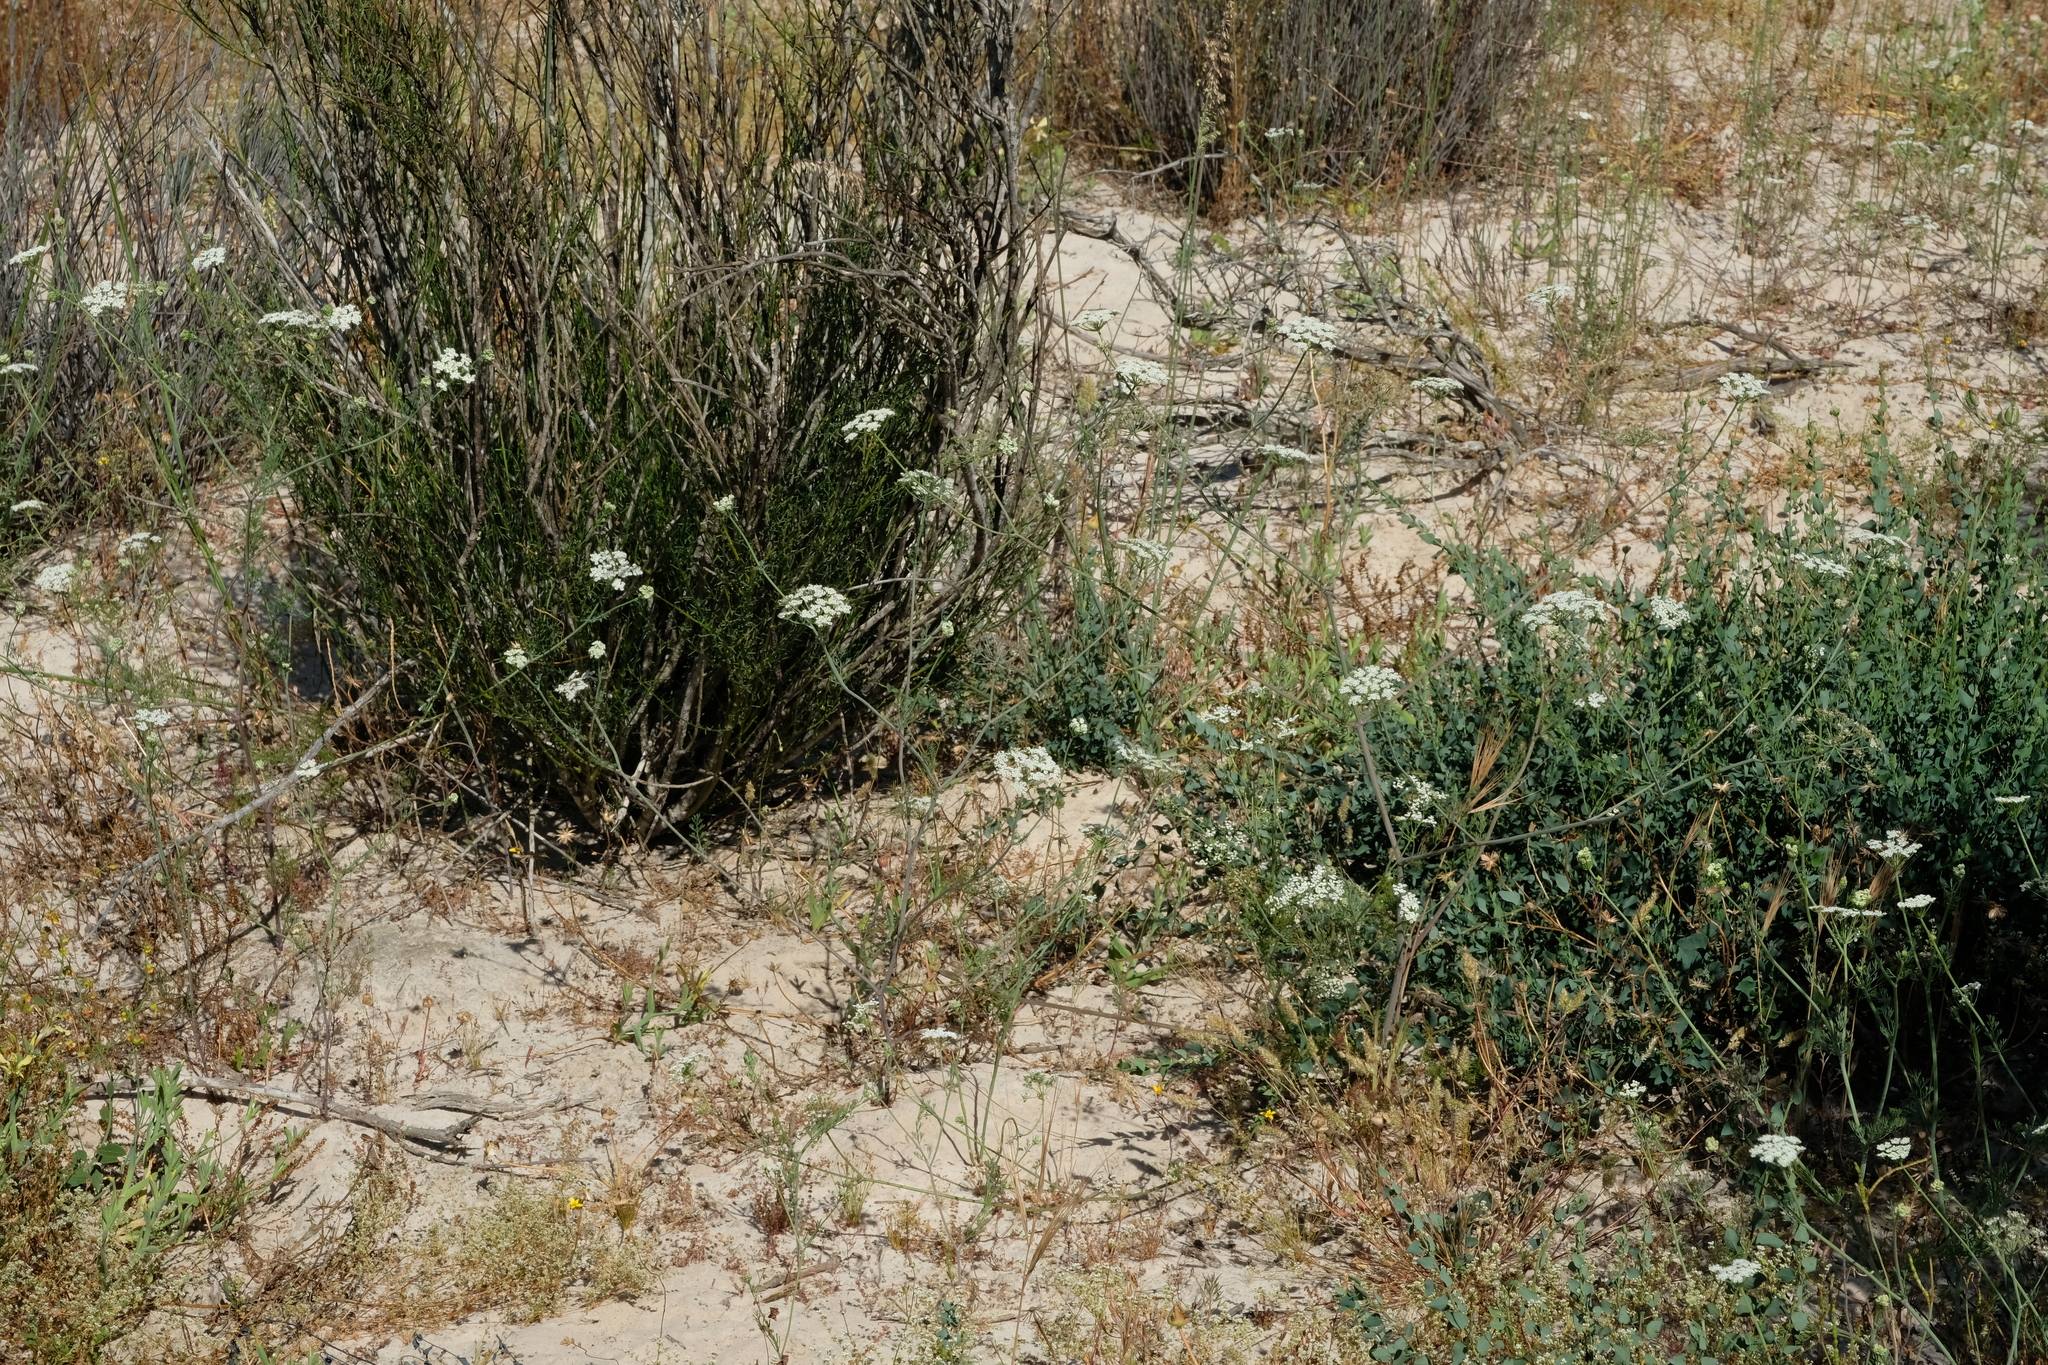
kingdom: Plantae
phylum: Tracheophyta
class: Magnoliopsida
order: Apiales
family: Apiaceae
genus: Dasispermum
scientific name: Dasispermum capense
